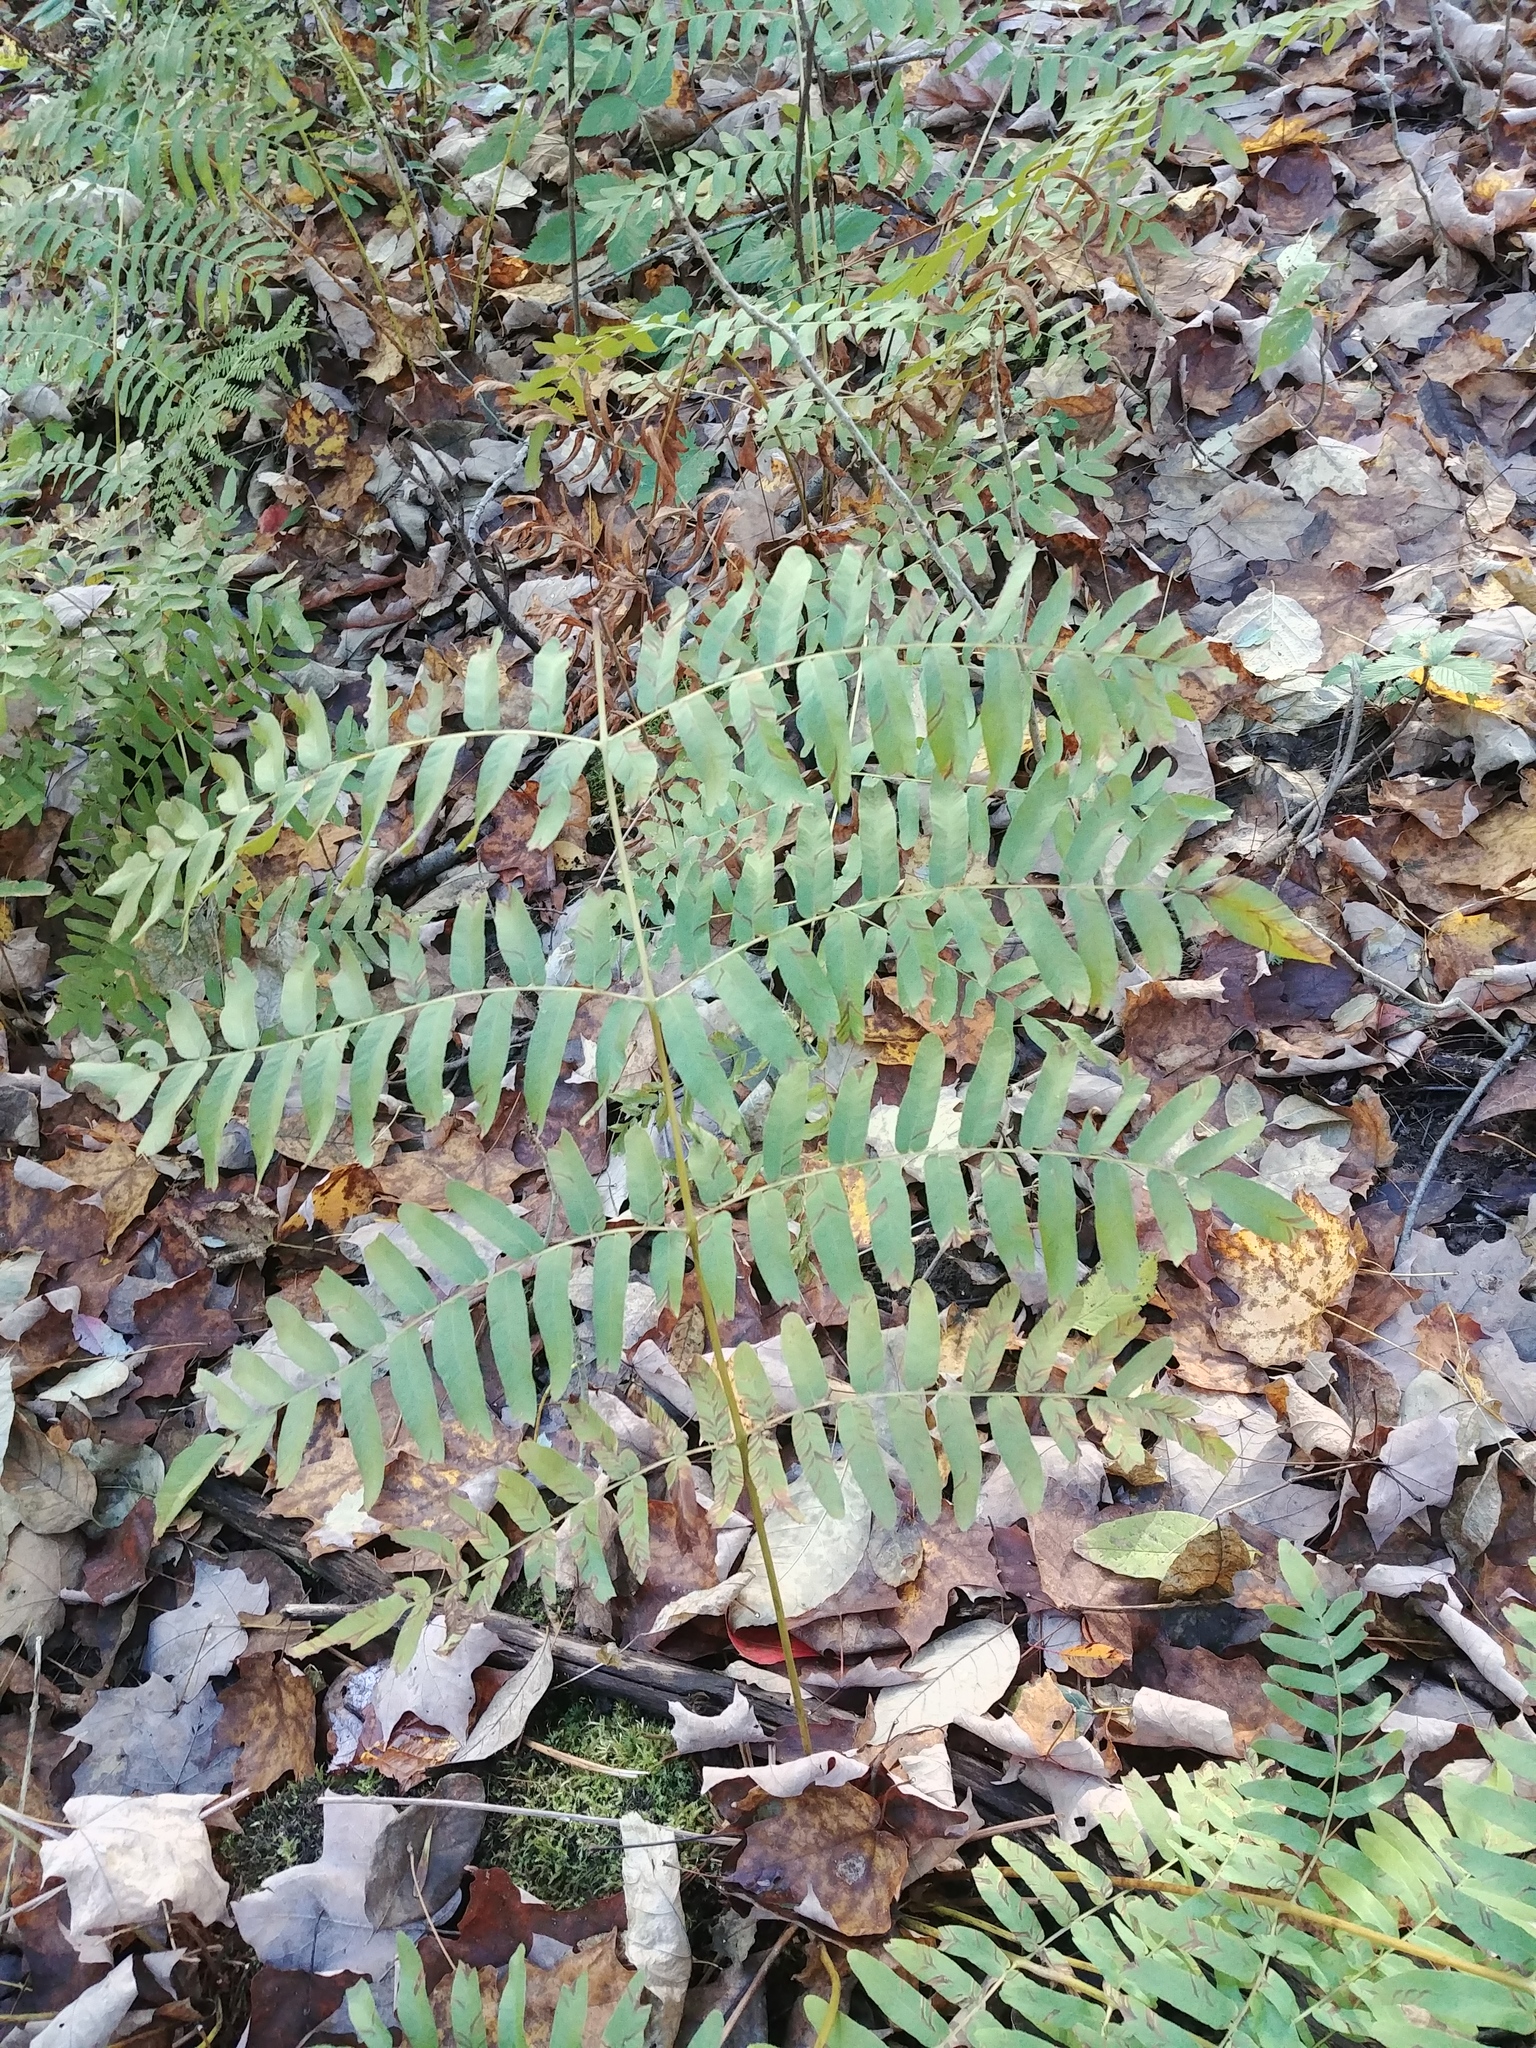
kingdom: Plantae
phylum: Tracheophyta
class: Polypodiopsida
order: Osmundales
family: Osmundaceae
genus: Osmunda
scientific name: Osmunda spectabilis
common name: American royal fern
